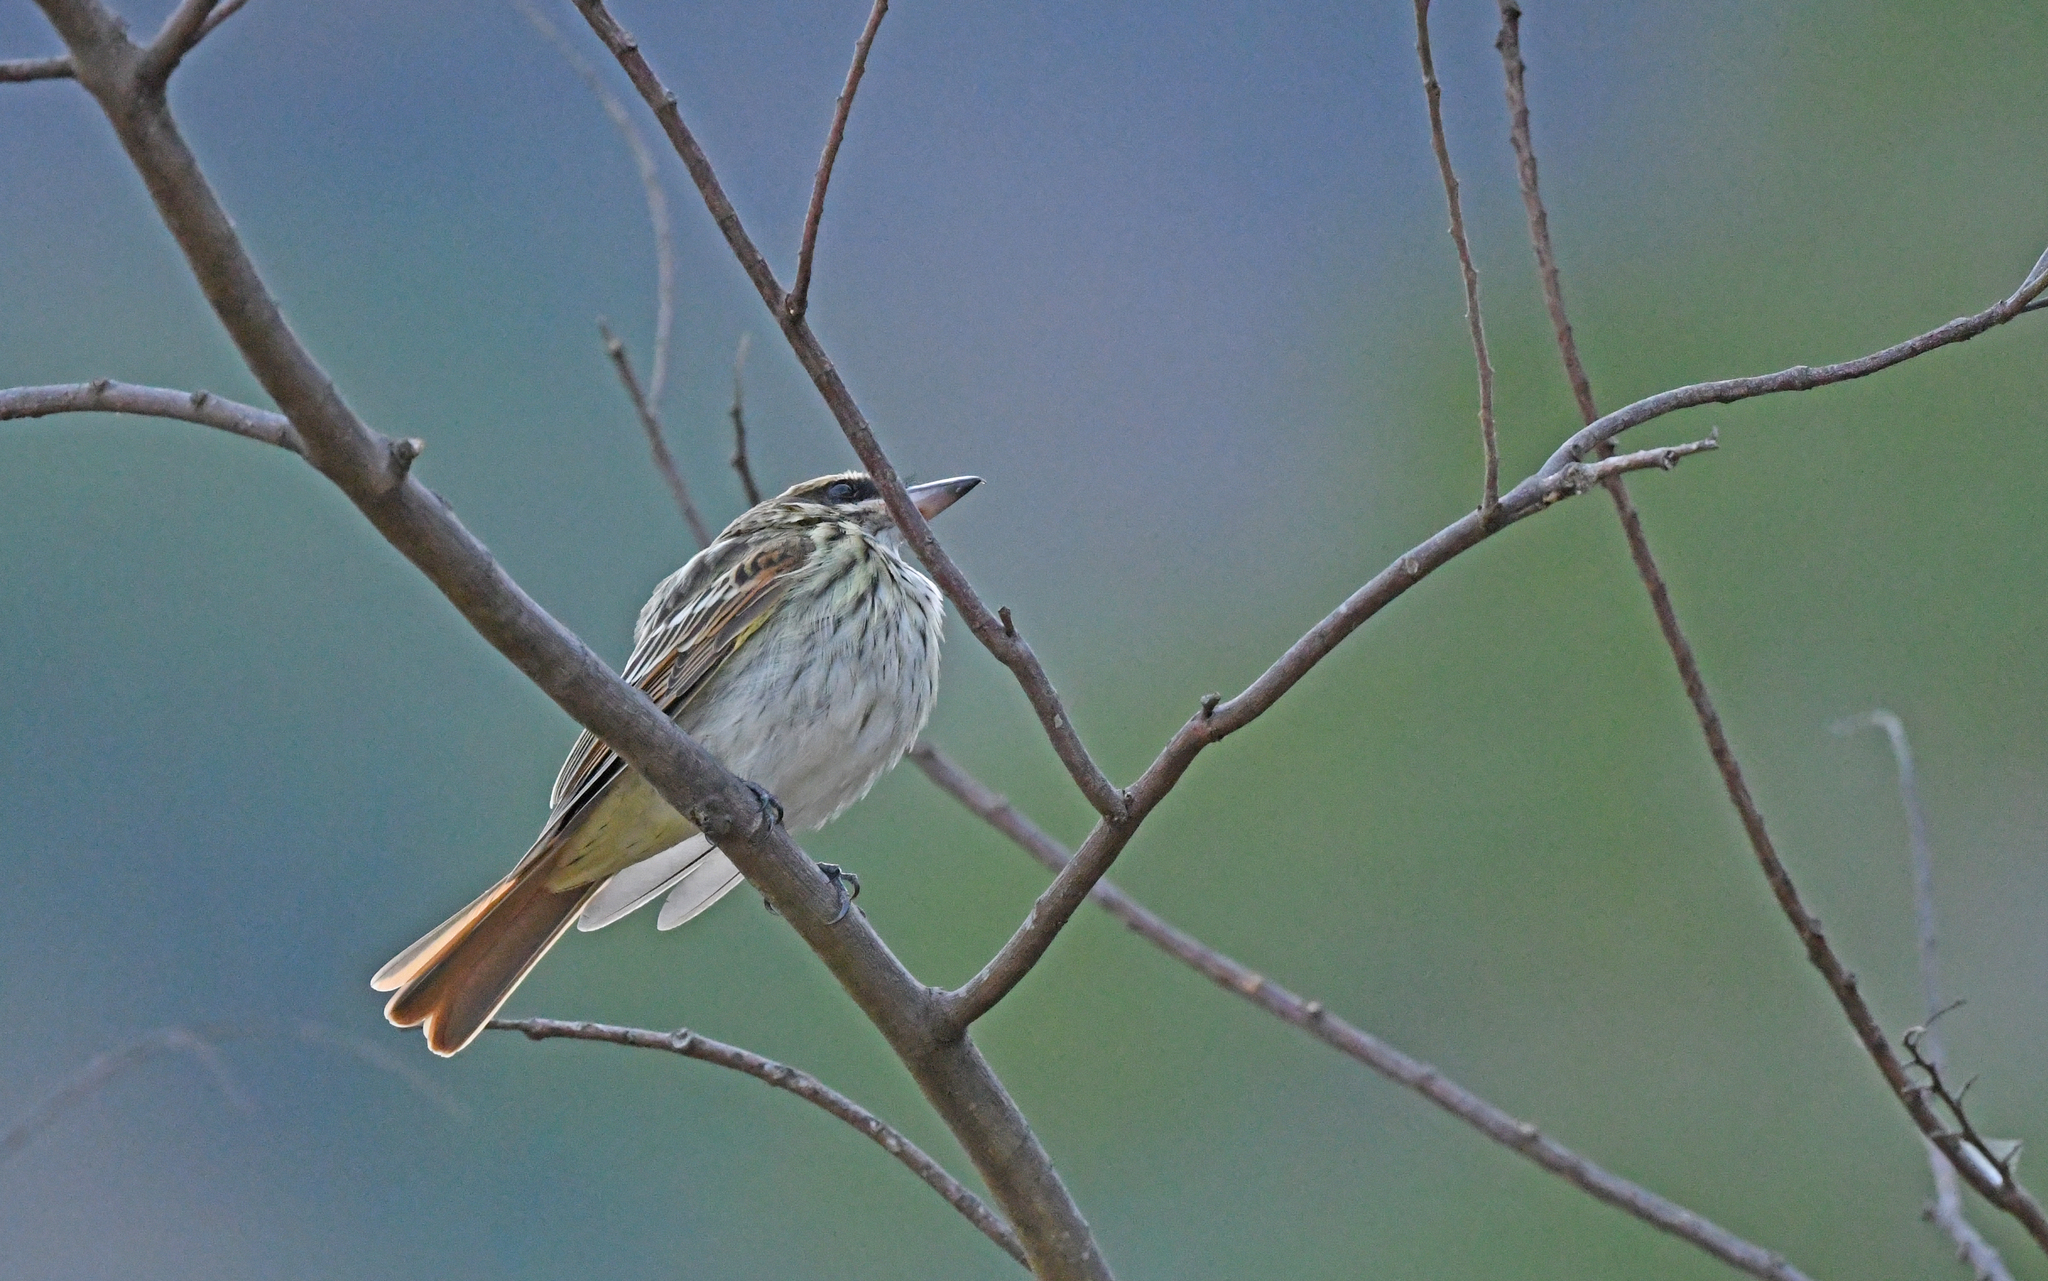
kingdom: Animalia
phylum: Chordata
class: Aves
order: Passeriformes
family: Tyrannidae
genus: Myiodynastes
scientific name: Myiodynastes maculatus
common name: Streaked flycatcher
